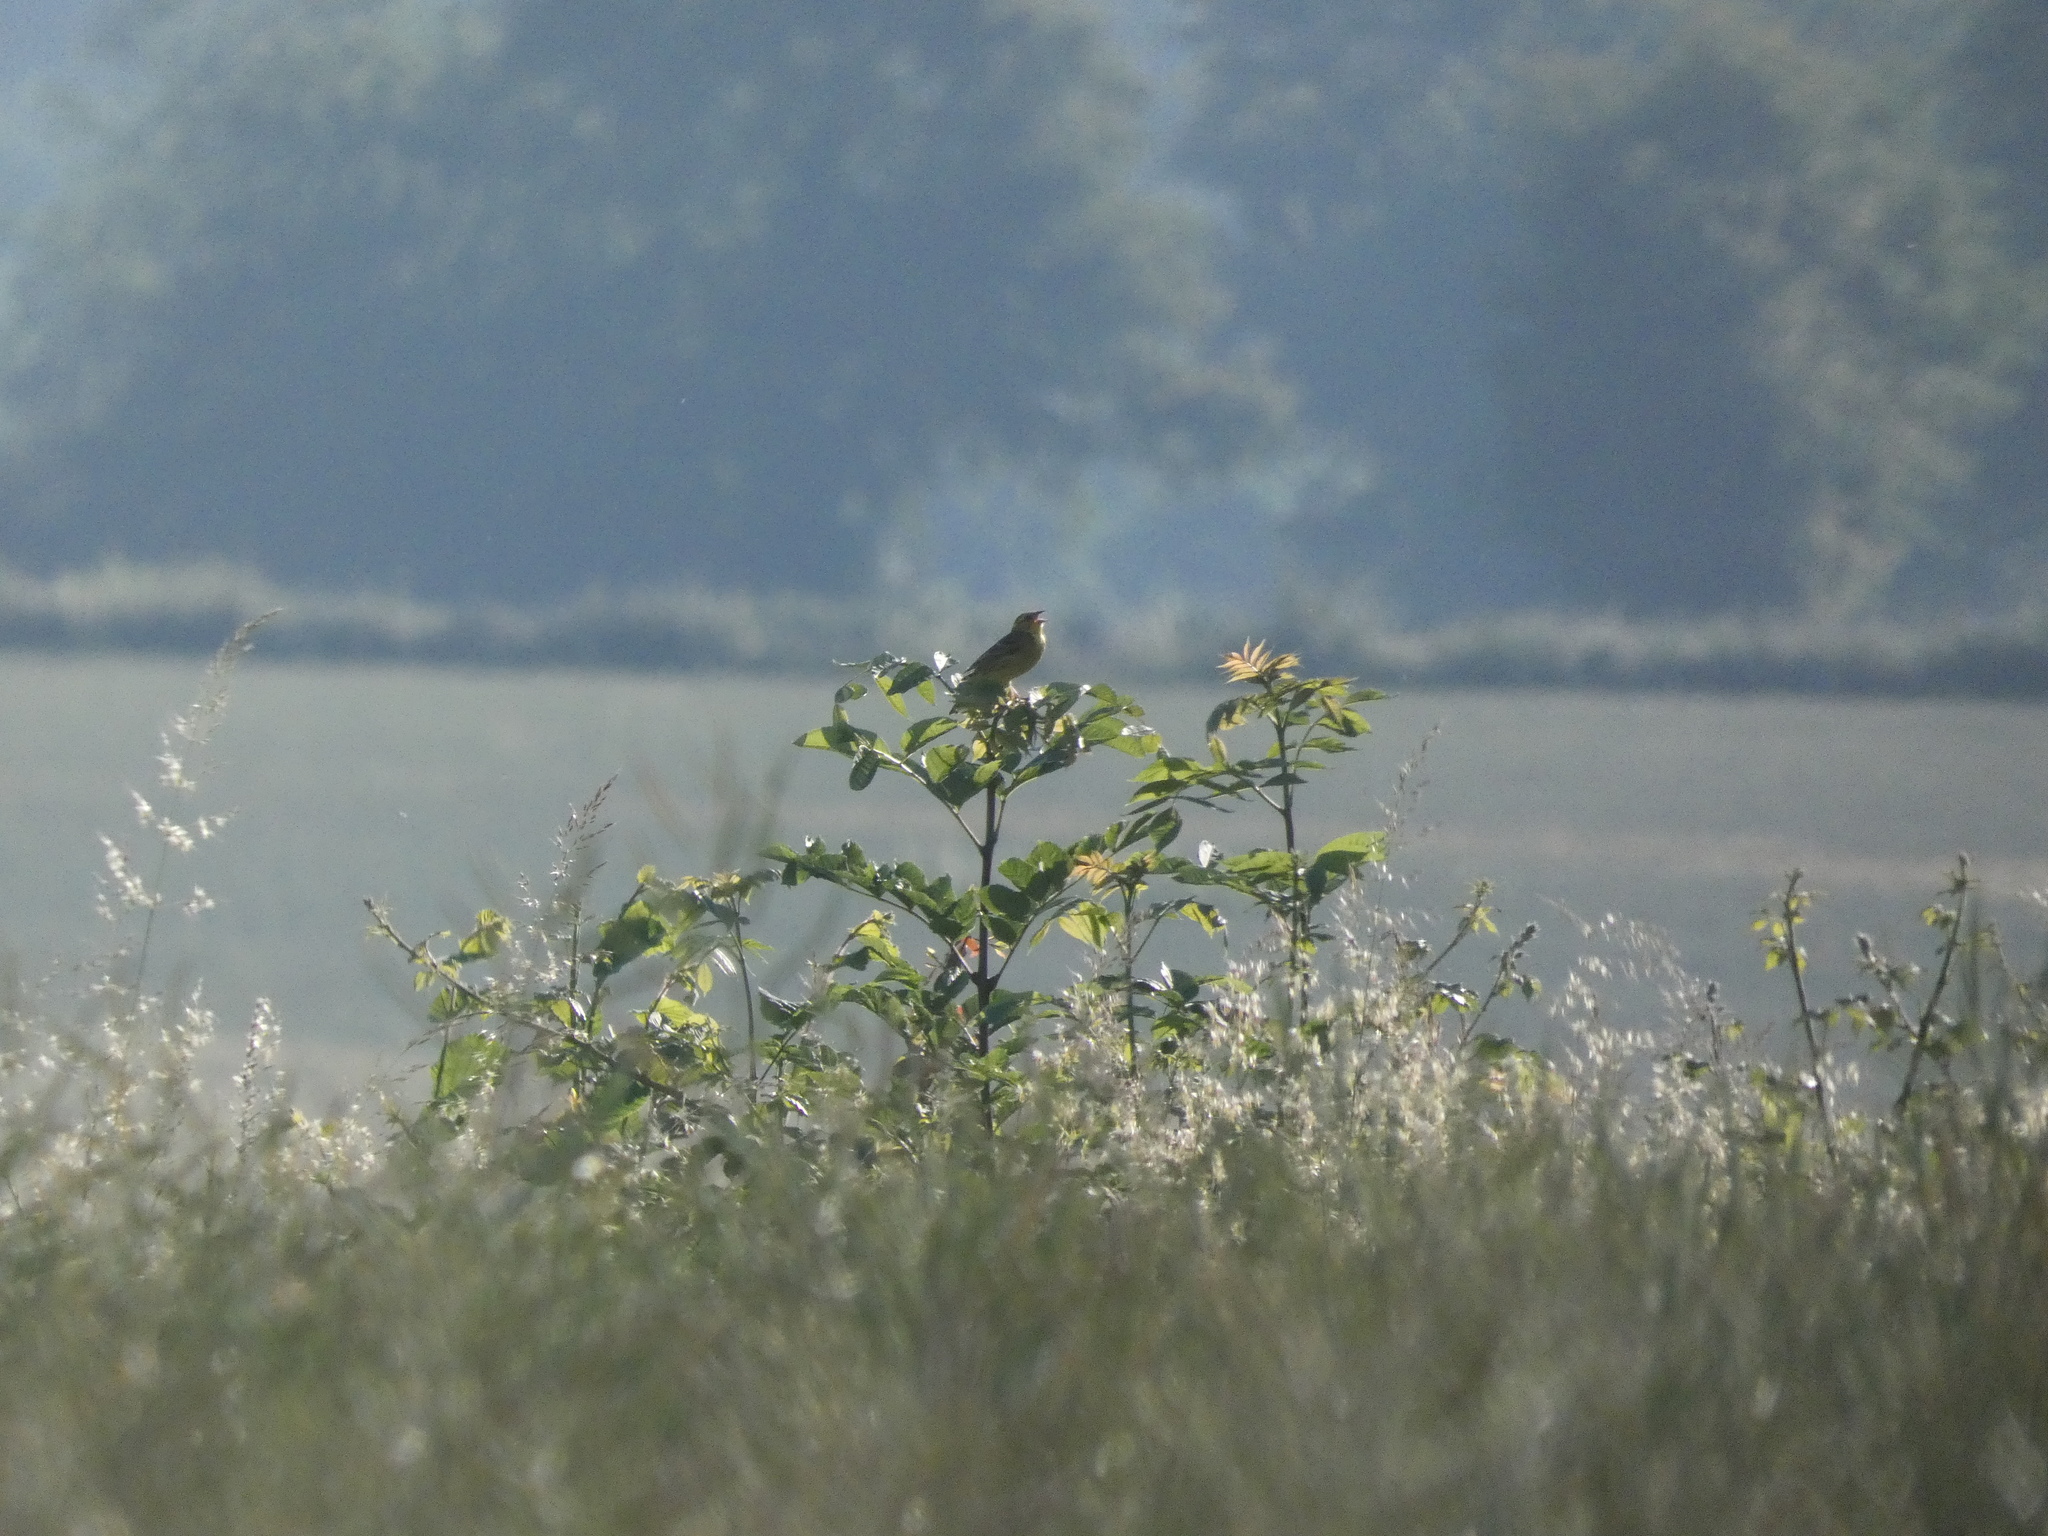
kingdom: Animalia
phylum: Chordata
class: Aves
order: Passeriformes
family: Emberizidae
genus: Emberiza
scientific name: Emberiza citrinella
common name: Yellowhammer
